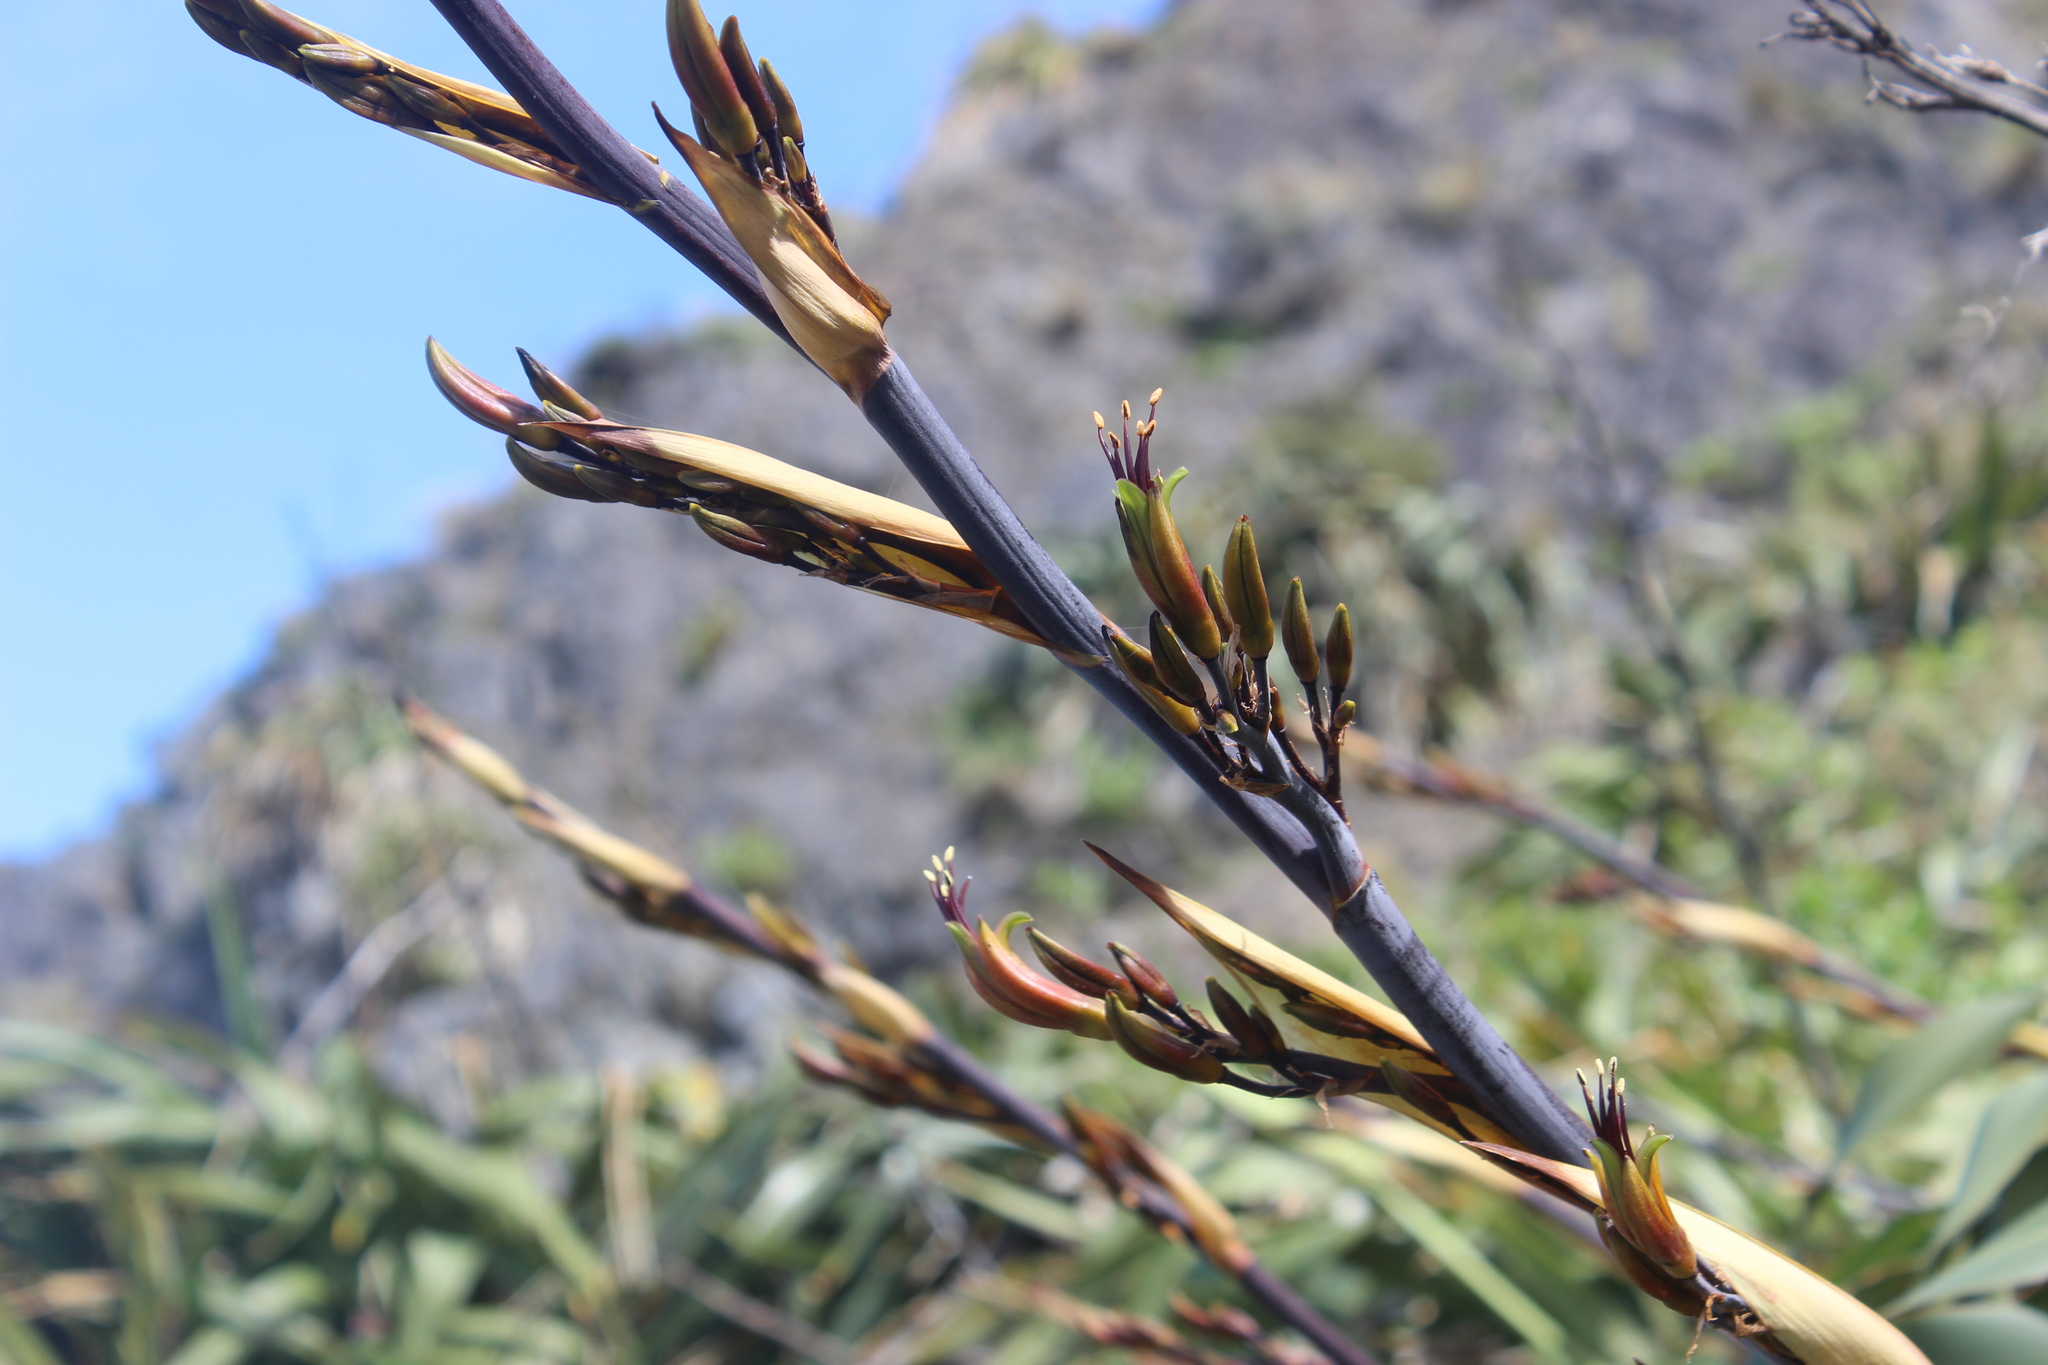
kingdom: Plantae
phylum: Tracheophyta
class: Liliopsida
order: Asparagales
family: Asphodelaceae
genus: Phormium
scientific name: Phormium colensoi
